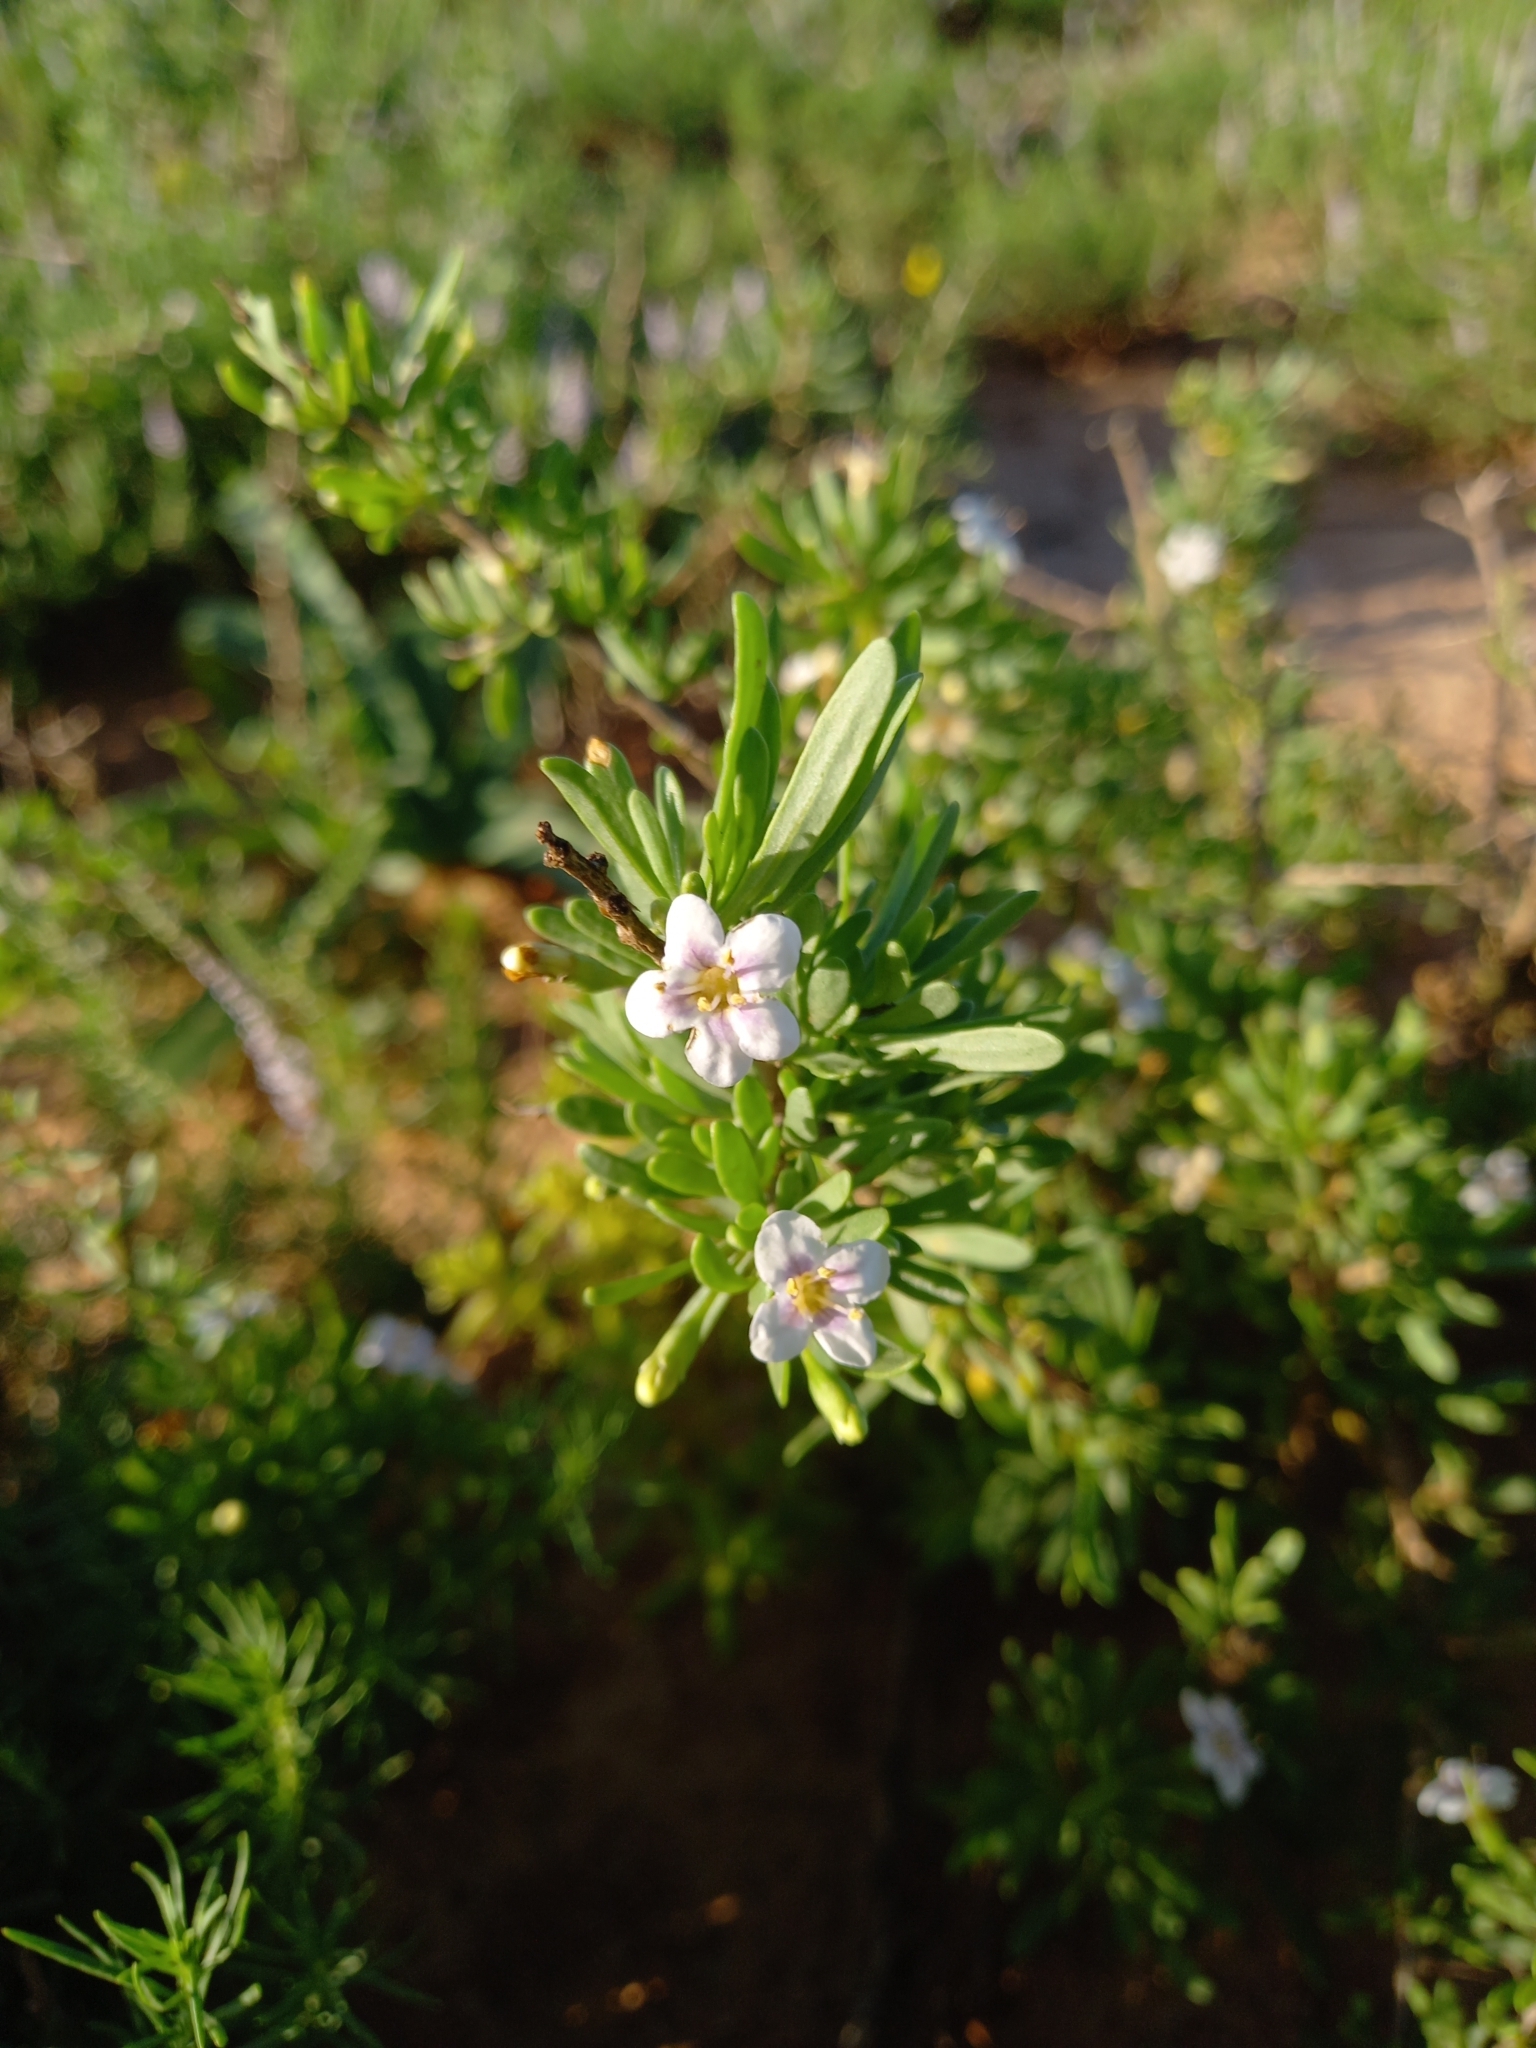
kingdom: Plantae
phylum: Tracheophyta
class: Magnoliopsida
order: Solanales
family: Solanaceae
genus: Lycium
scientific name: Lycium ferocissimum
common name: African boxthorn
